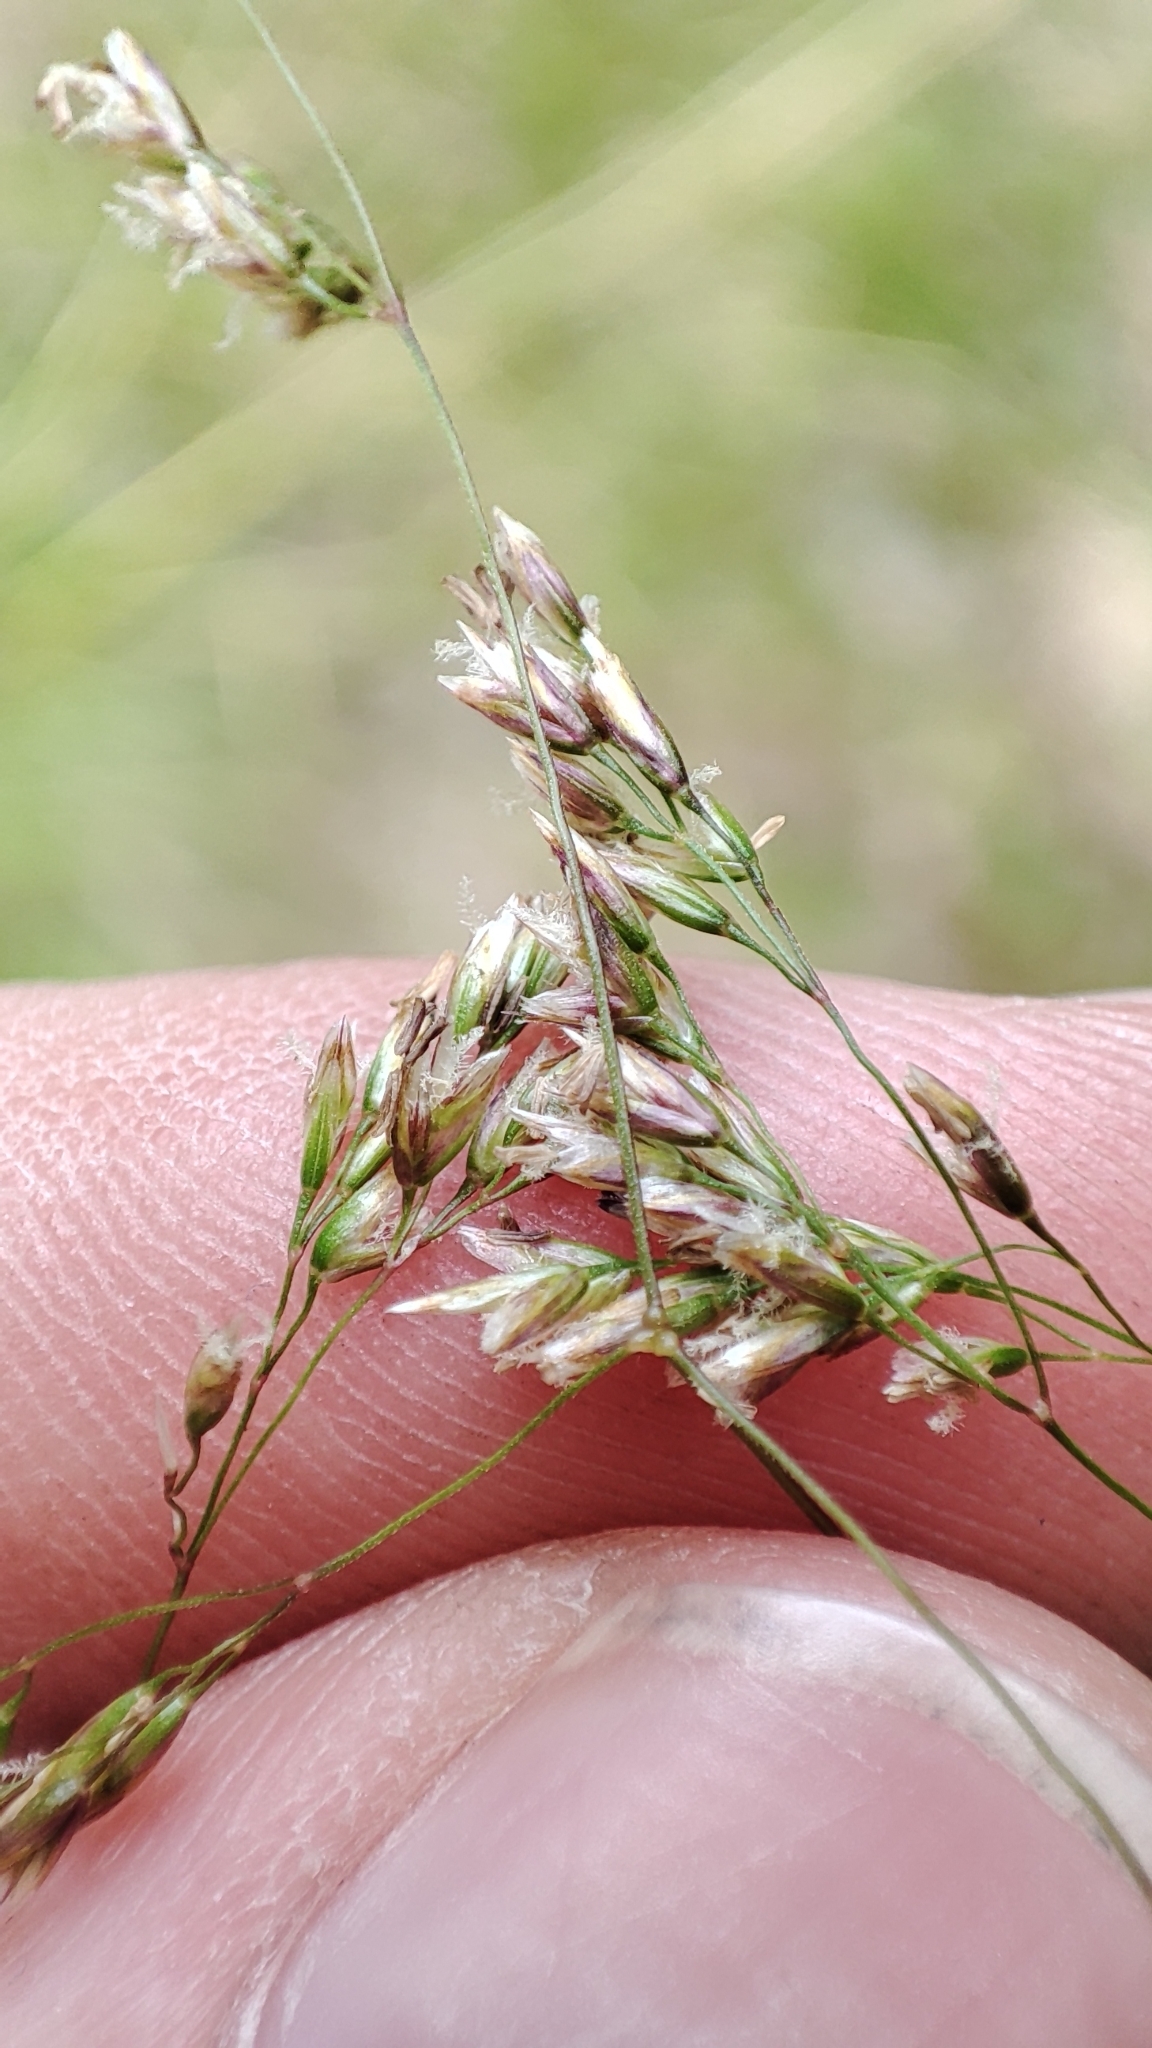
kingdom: Plantae
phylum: Tracheophyta
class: Liliopsida
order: Poales
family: Poaceae
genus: Deschampsia
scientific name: Deschampsia cespitosa
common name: Tufted hair-grass
